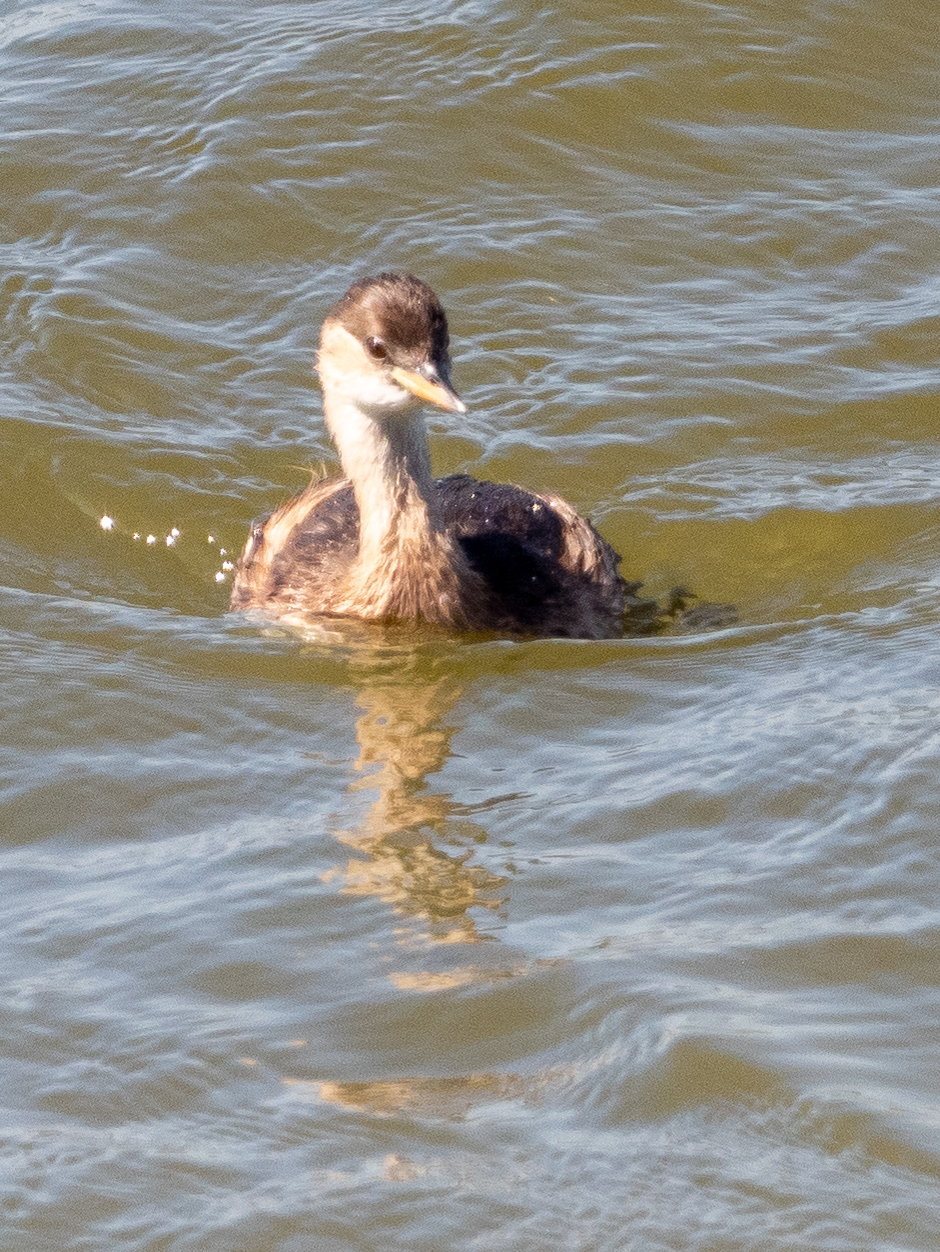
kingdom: Animalia
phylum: Chordata
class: Aves
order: Podicipediformes
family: Podicipedidae
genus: Tachybaptus
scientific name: Tachybaptus ruficollis
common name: Little grebe
